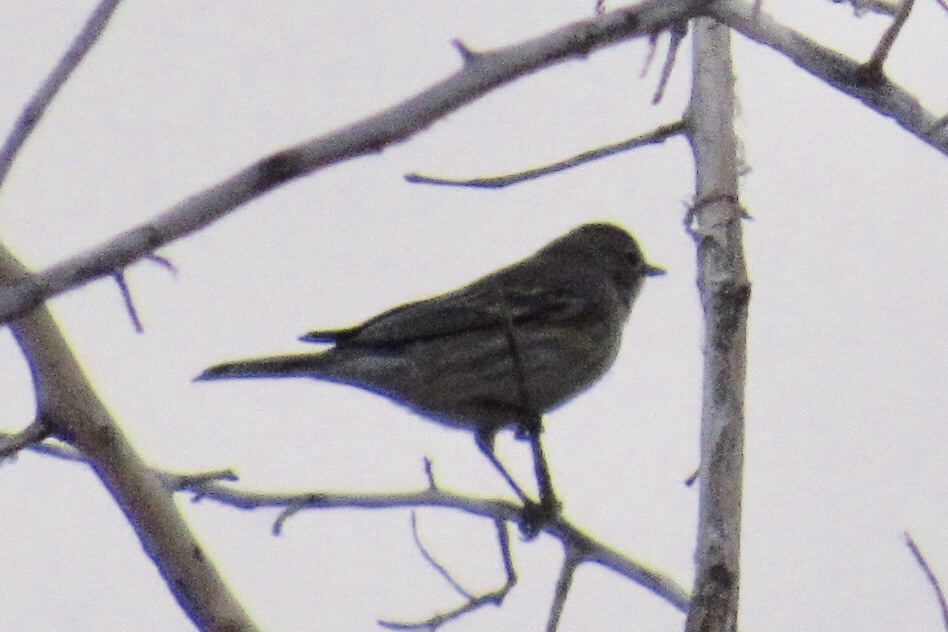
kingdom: Animalia
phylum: Chordata
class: Aves
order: Passeriformes
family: Parulidae
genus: Setophaga
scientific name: Setophaga coronata
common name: Myrtle warbler
